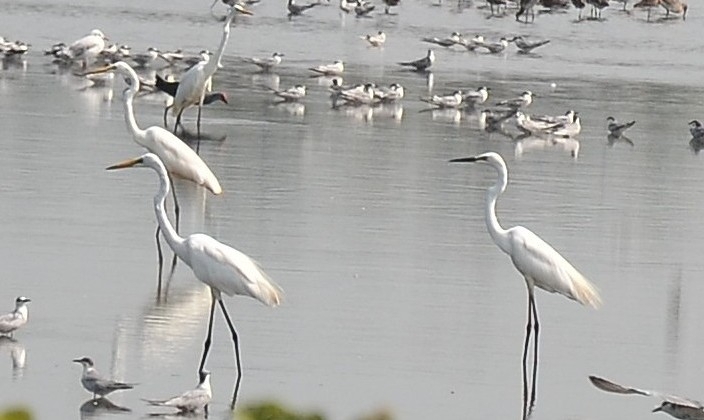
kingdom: Animalia
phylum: Chordata
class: Aves
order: Pelecaniformes
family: Ardeidae
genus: Ardea
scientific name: Ardea alba
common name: Great egret
